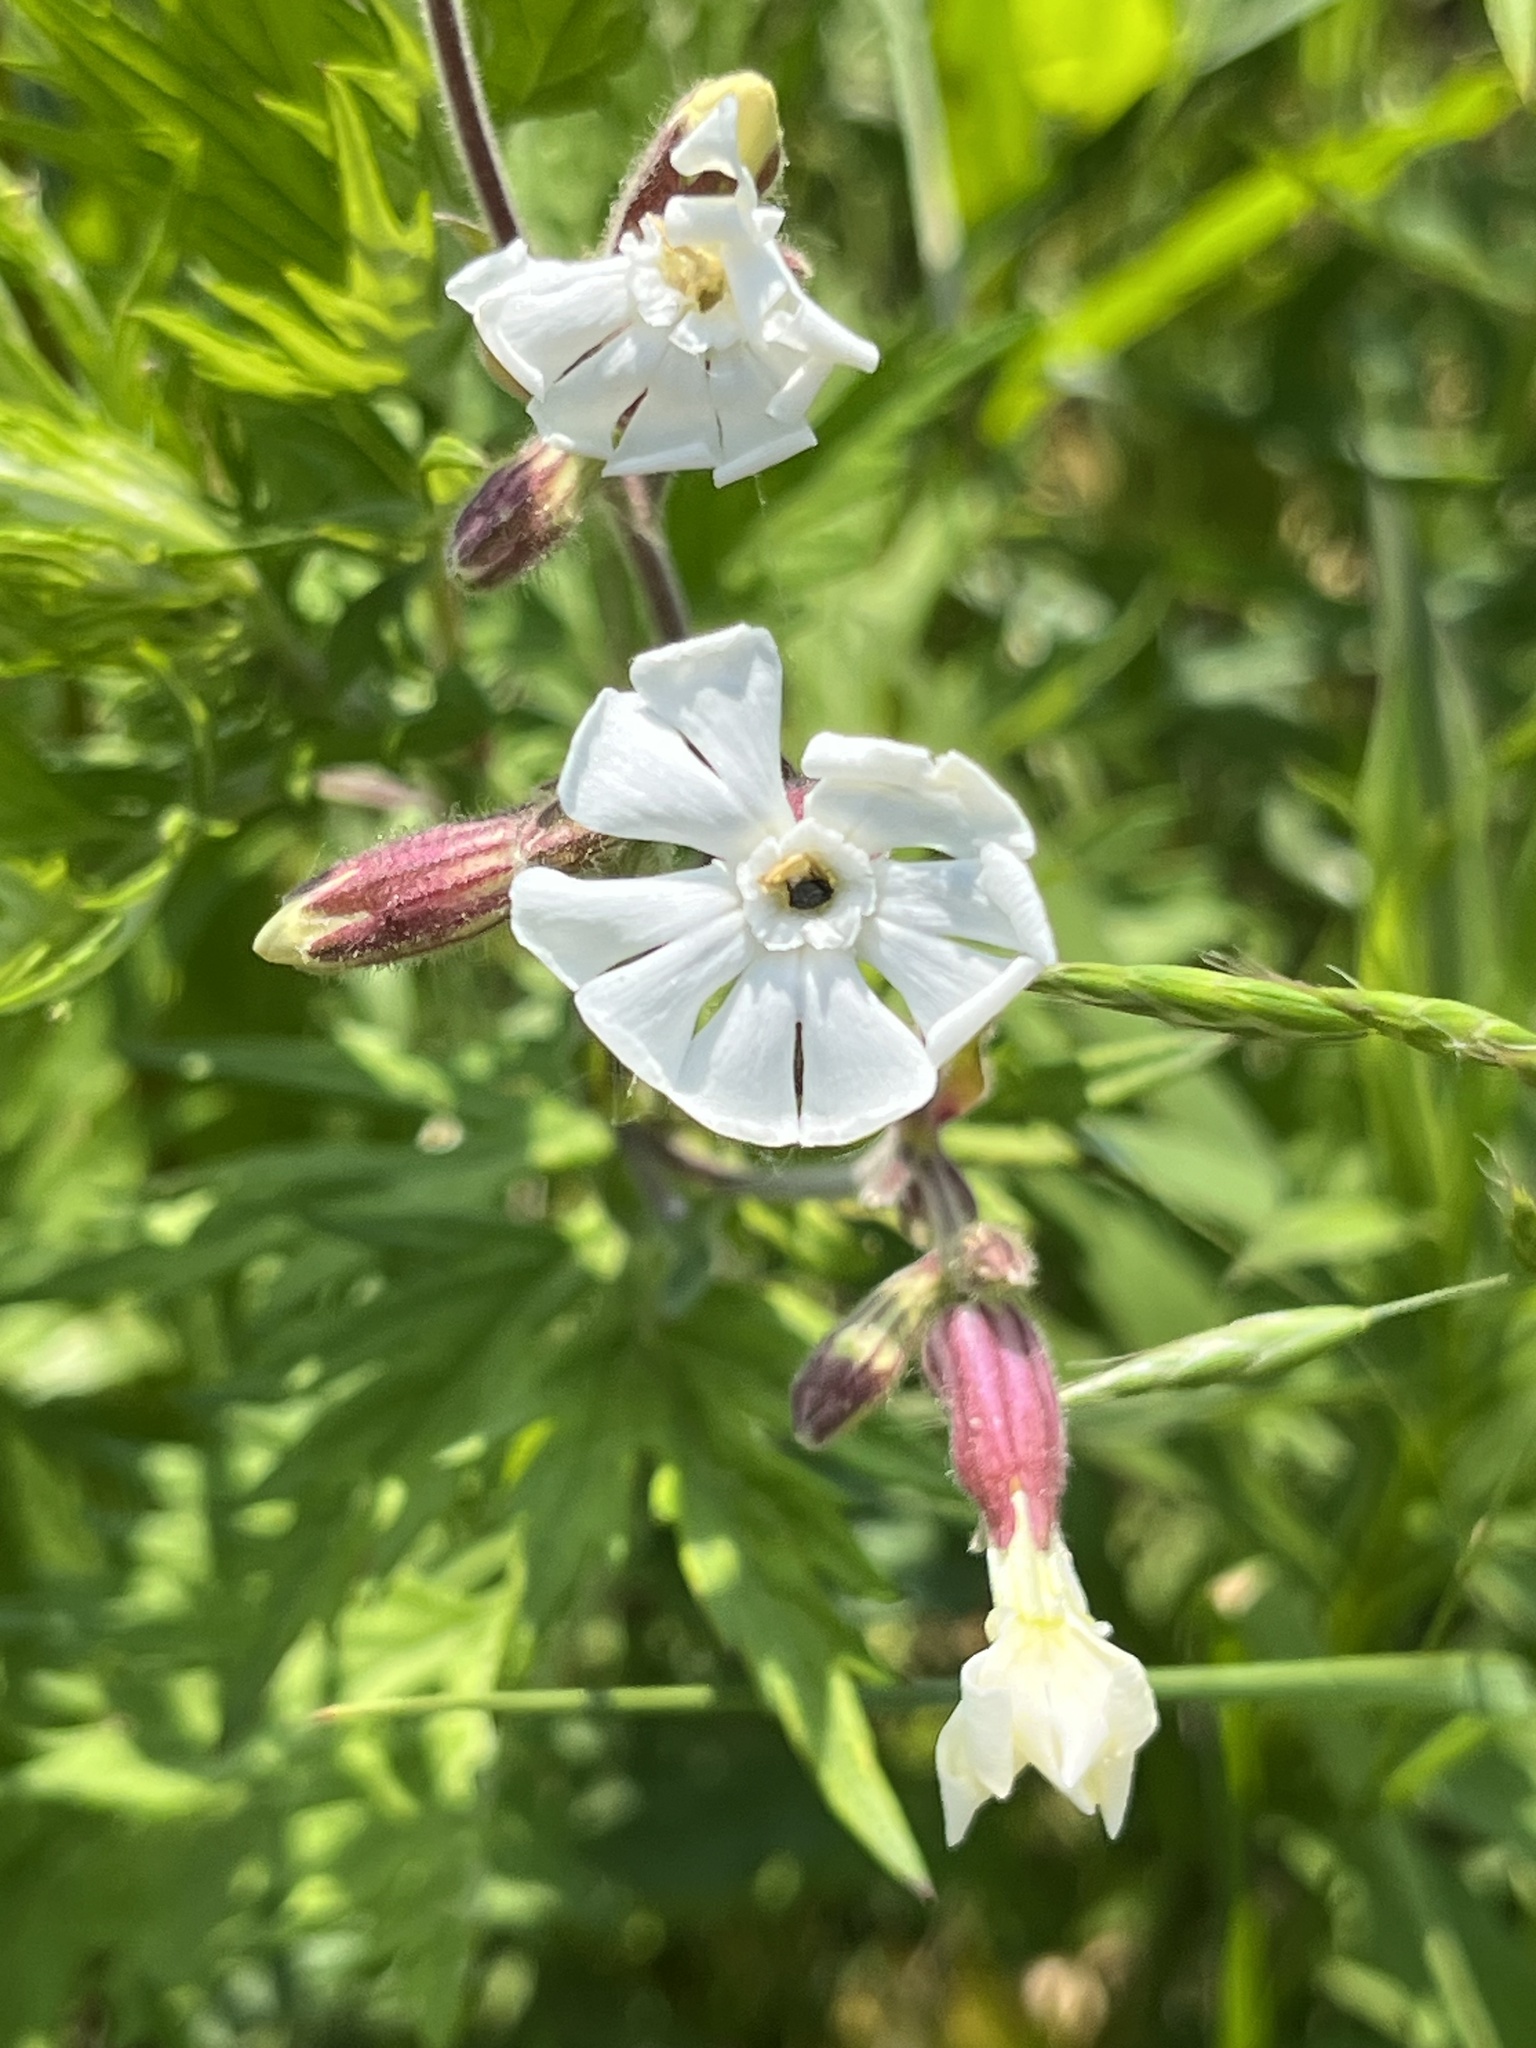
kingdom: Plantae
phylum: Tracheophyta
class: Magnoliopsida
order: Caryophyllales
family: Caryophyllaceae
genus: Silene
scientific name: Silene latifolia
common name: White campion
